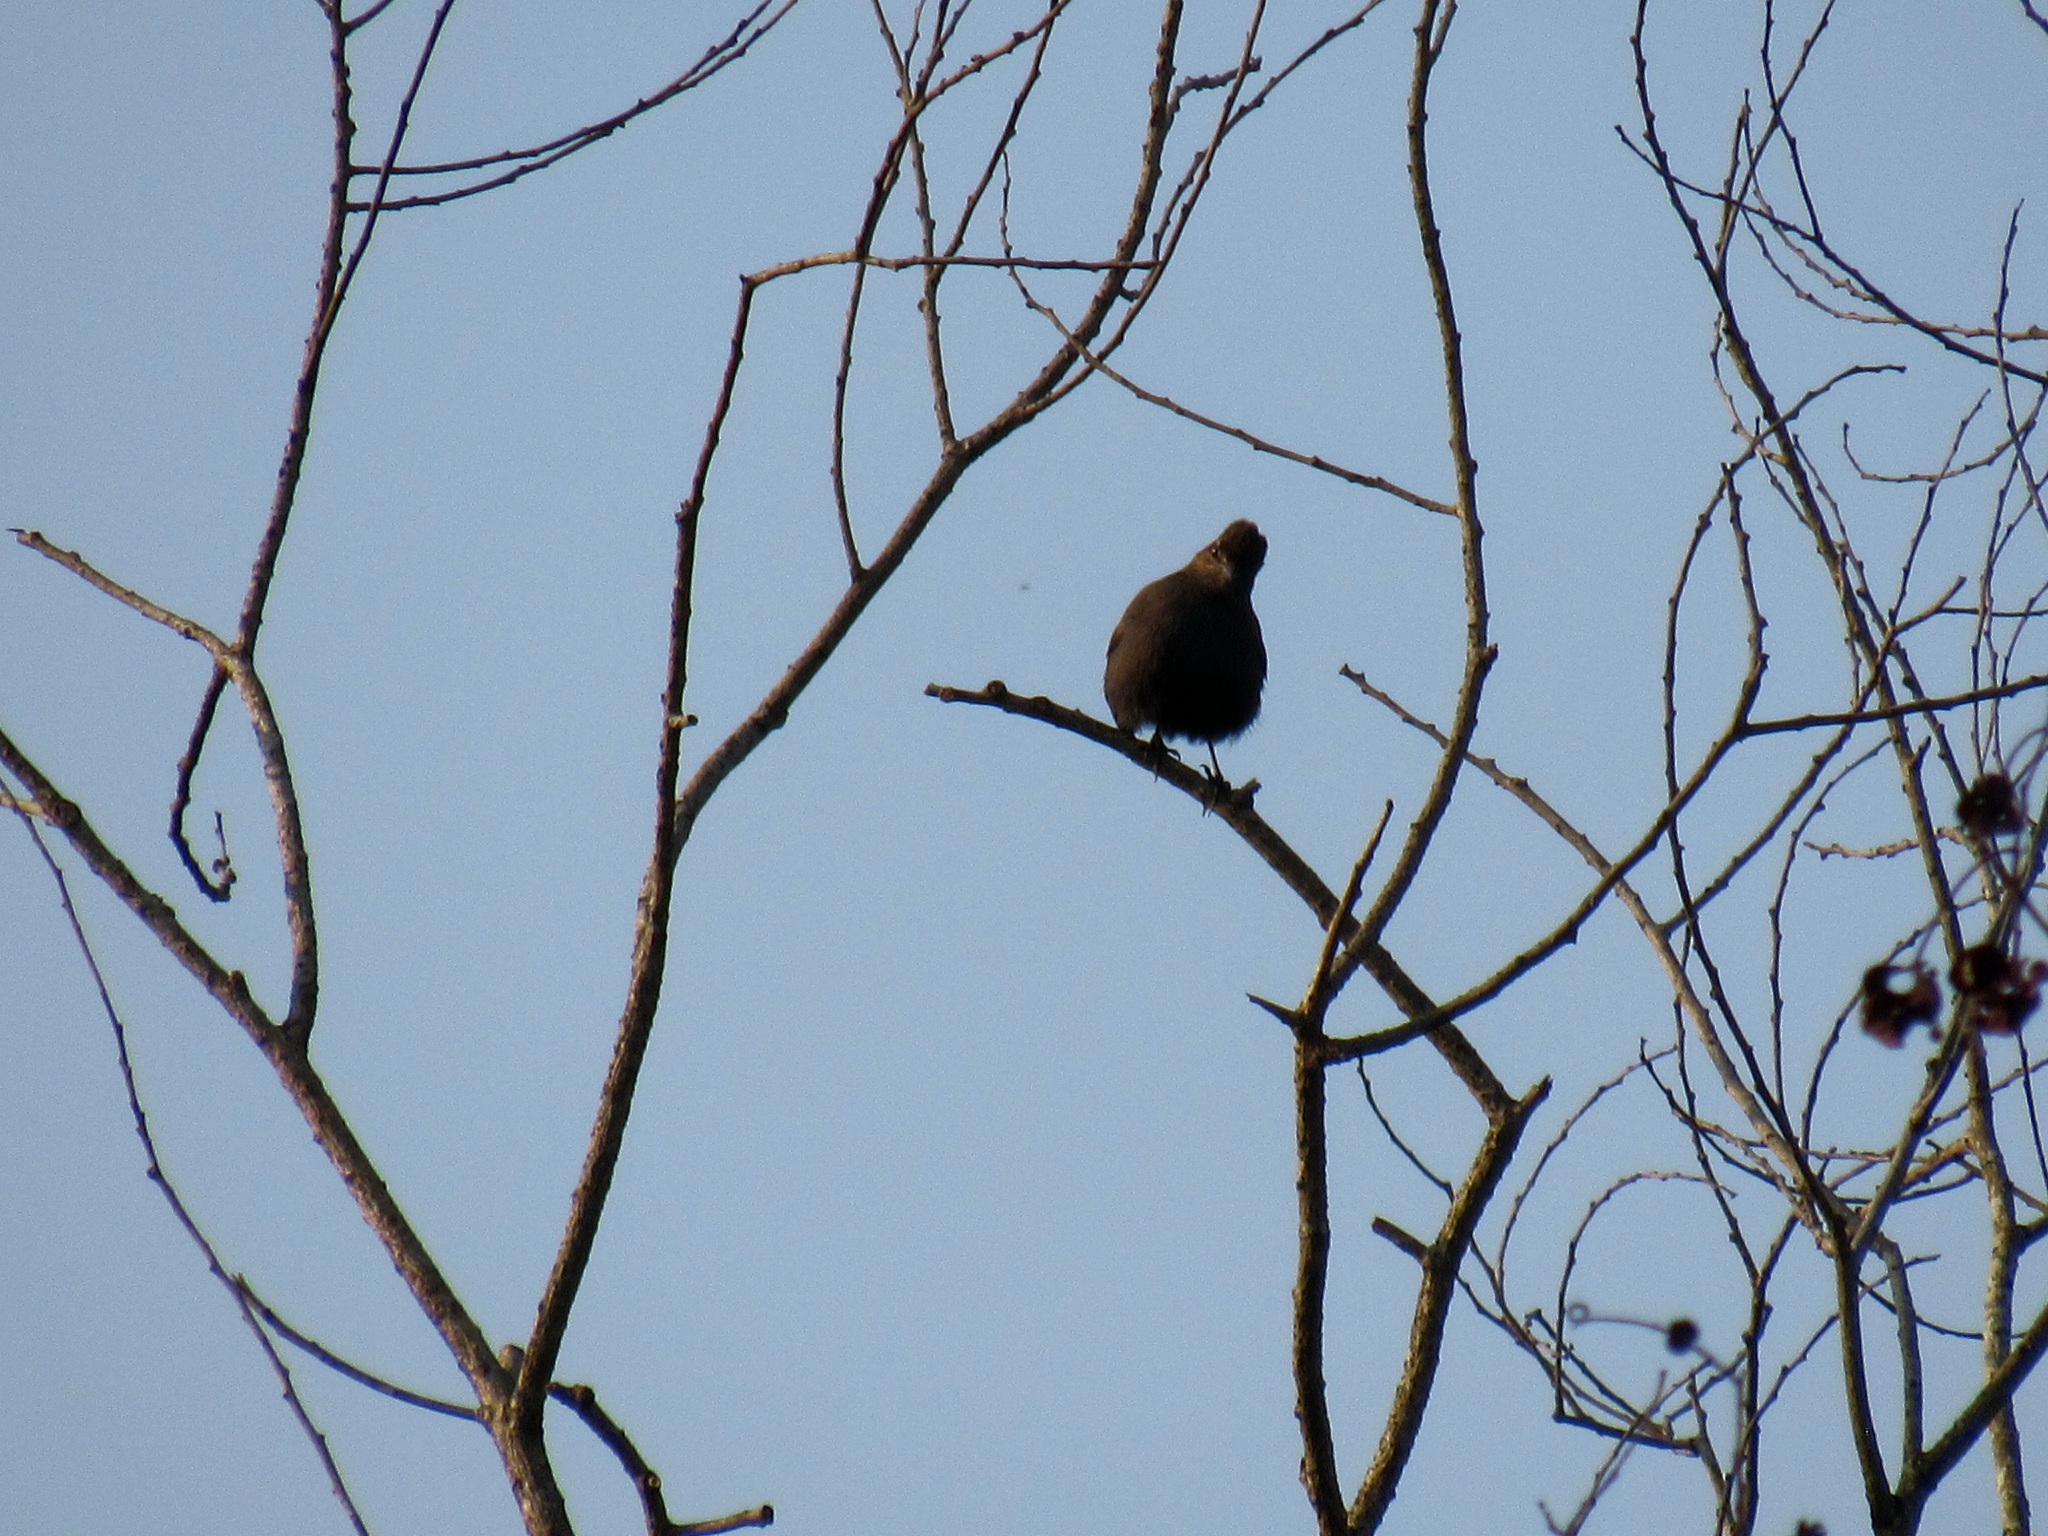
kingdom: Animalia
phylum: Chordata
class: Aves
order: Passeriformes
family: Muscicapidae
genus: Saxicoloides
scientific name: Saxicoloides fulicatus
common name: Indian robin
